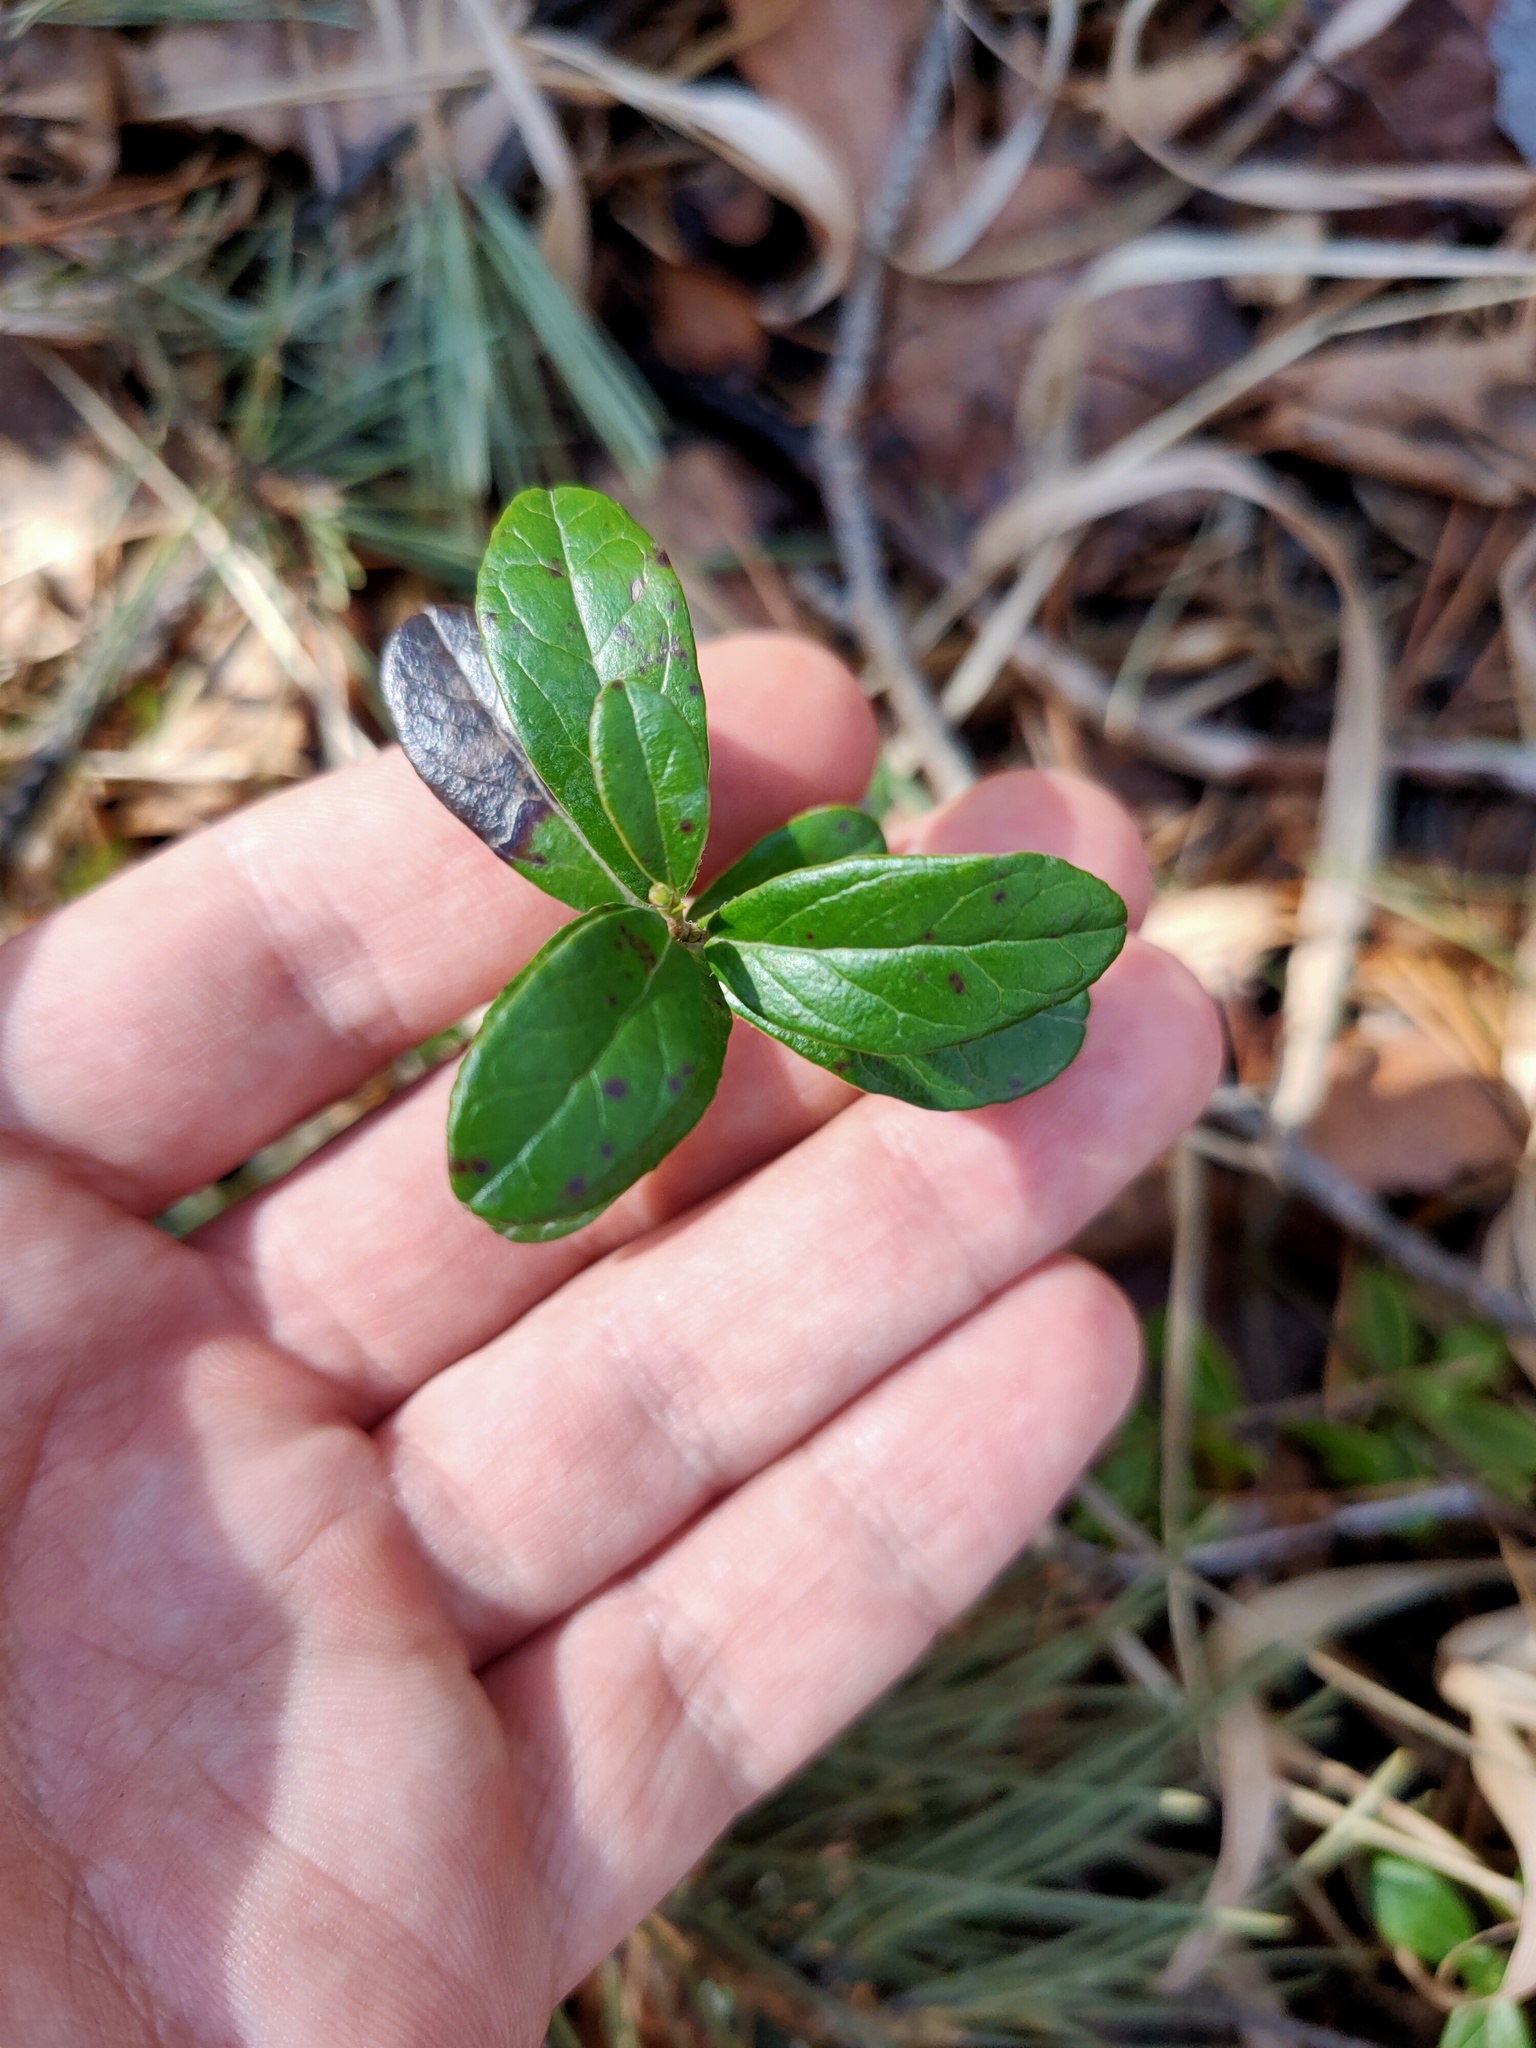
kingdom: Plantae
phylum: Tracheophyta
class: Magnoliopsida
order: Ericales
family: Ericaceae
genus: Vaccinium
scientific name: Vaccinium vitis-idaea
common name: Cowberry
